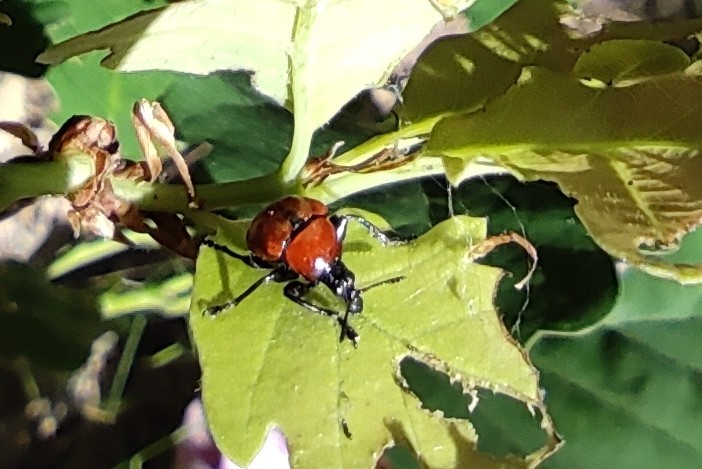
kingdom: Animalia
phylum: Arthropoda
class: Insecta
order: Coleoptera
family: Attelabidae
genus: Attelabus
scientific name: Attelabus nitens
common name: Oak leaf-roller
